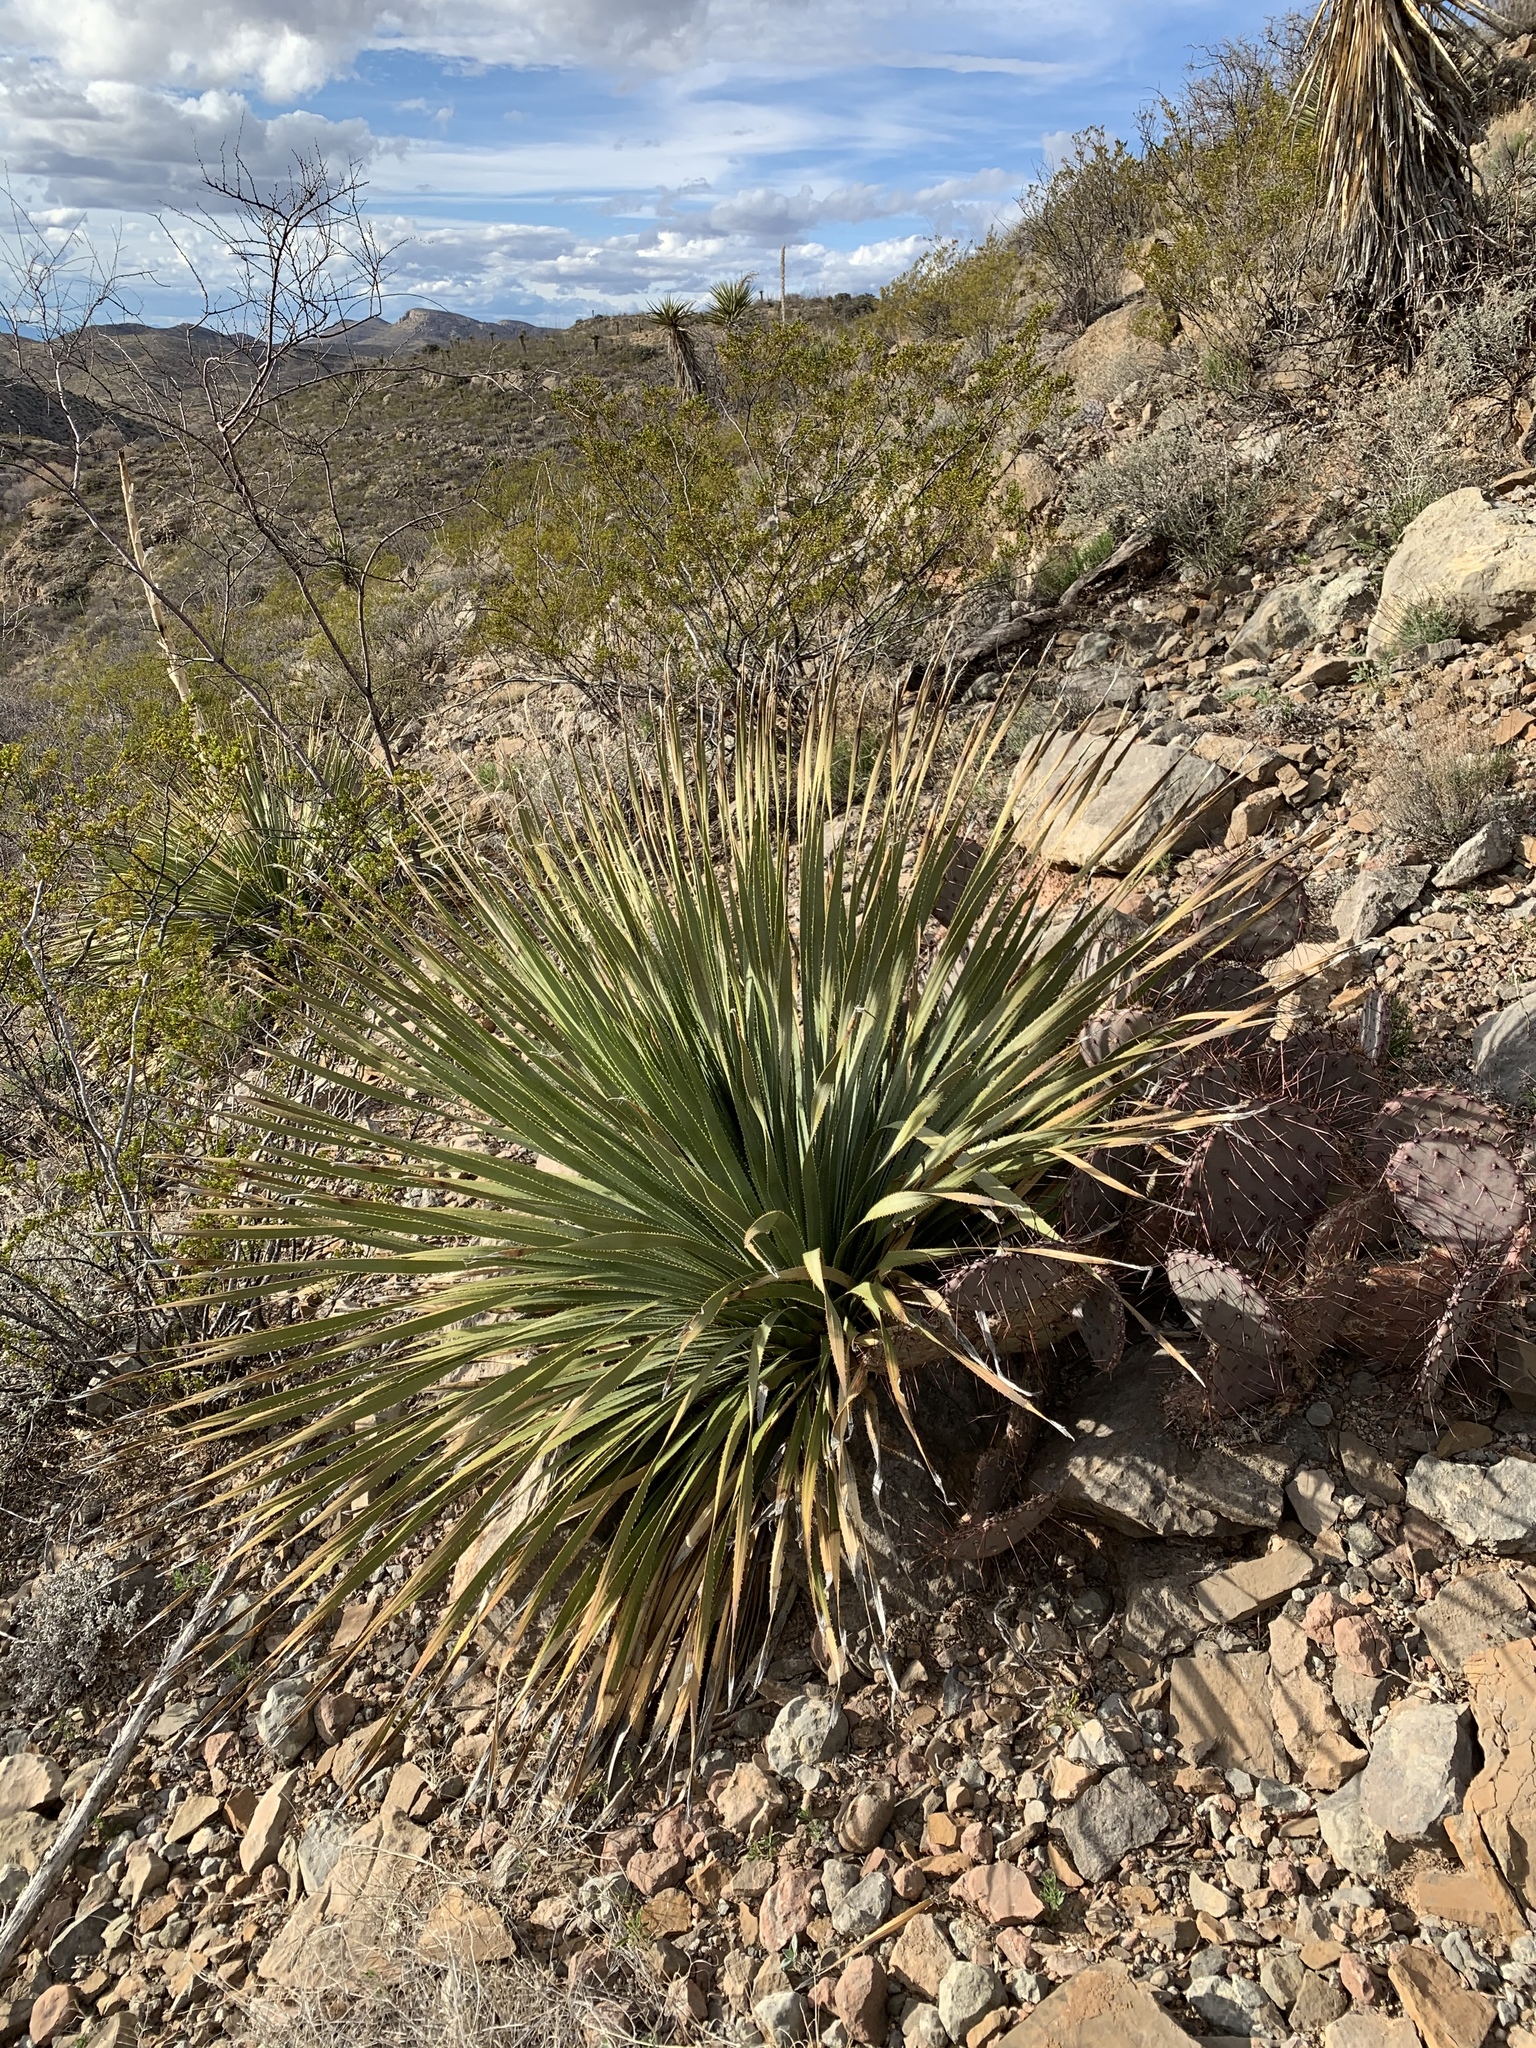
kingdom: Plantae
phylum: Tracheophyta
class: Liliopsida
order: Asparagales
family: Asparagaceae
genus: Dasylirion
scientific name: Dasylirion wheeleri
